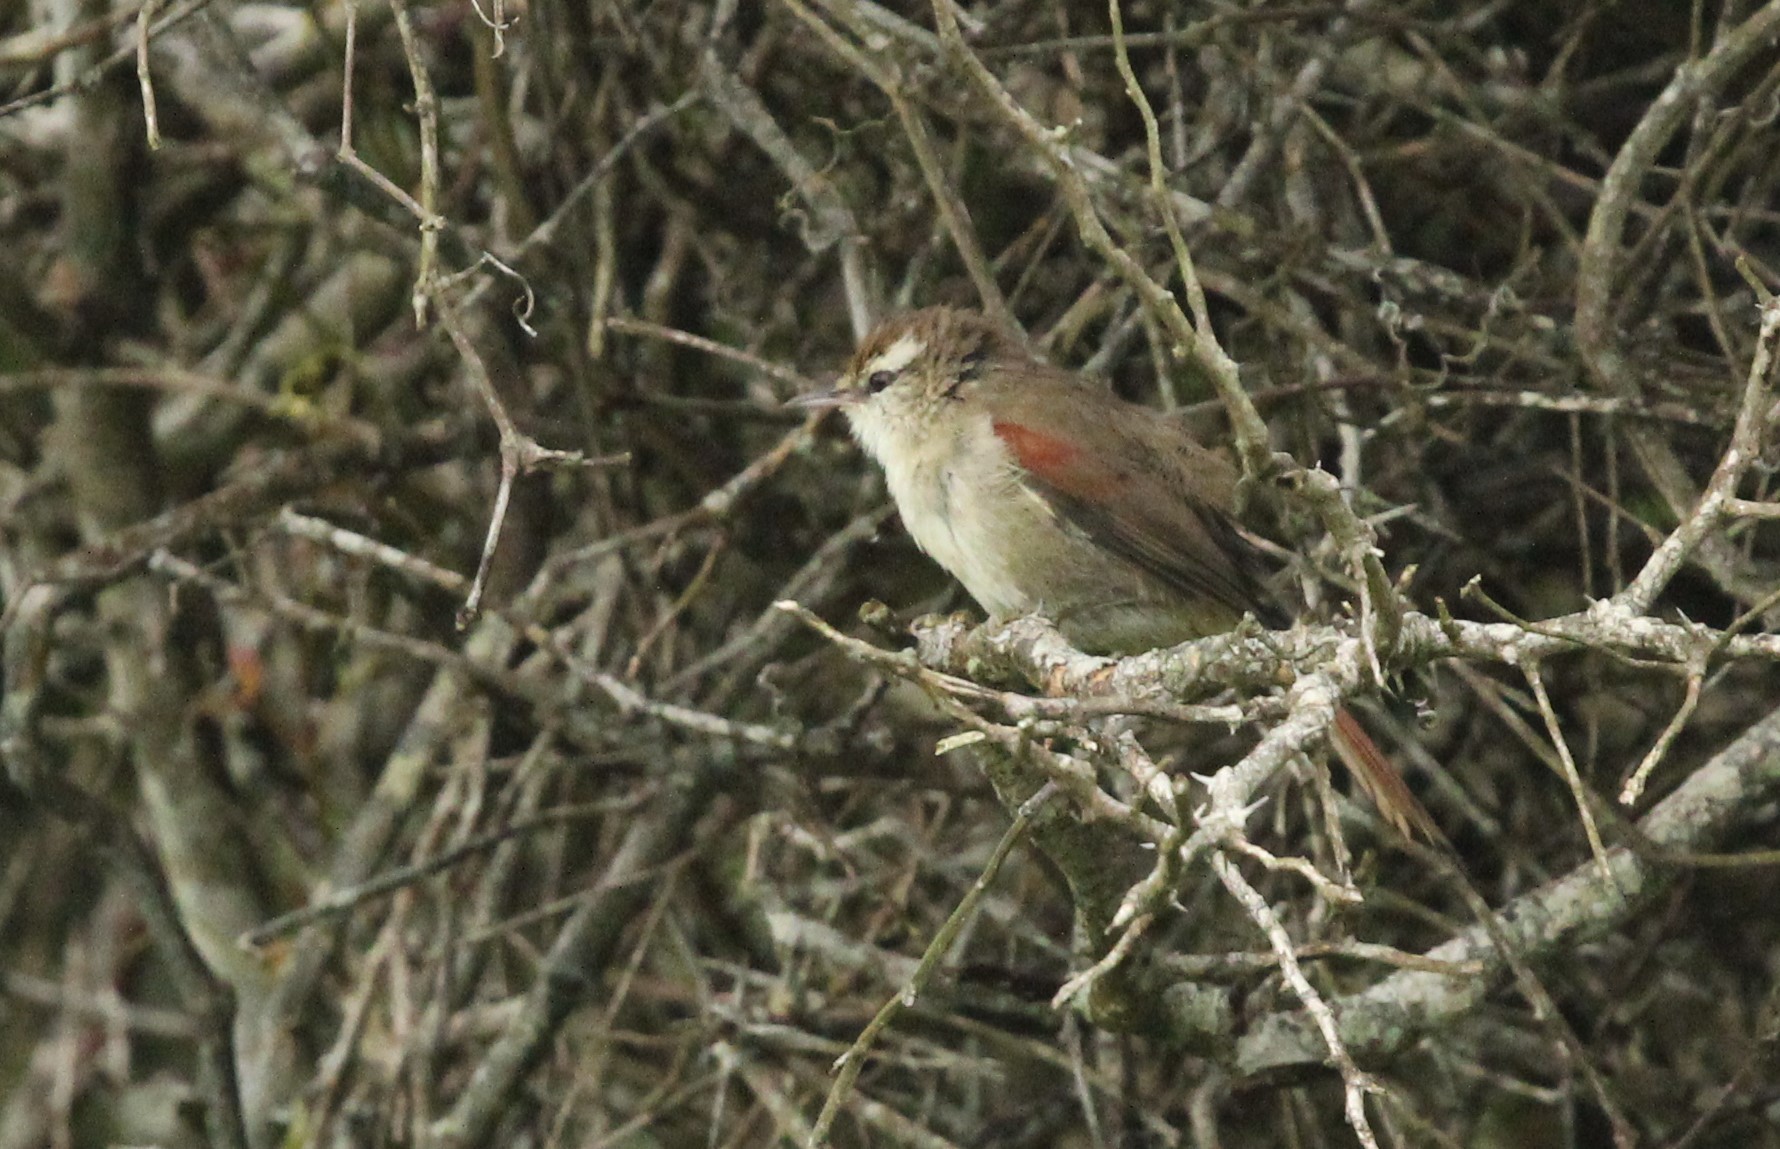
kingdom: Animalia
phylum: Chordata
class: Aves
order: Passeriformes
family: Furnariidae
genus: Cranioleuca
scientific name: Cranioleuca pyrrhophia
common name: Stripe-crowned spinetail
